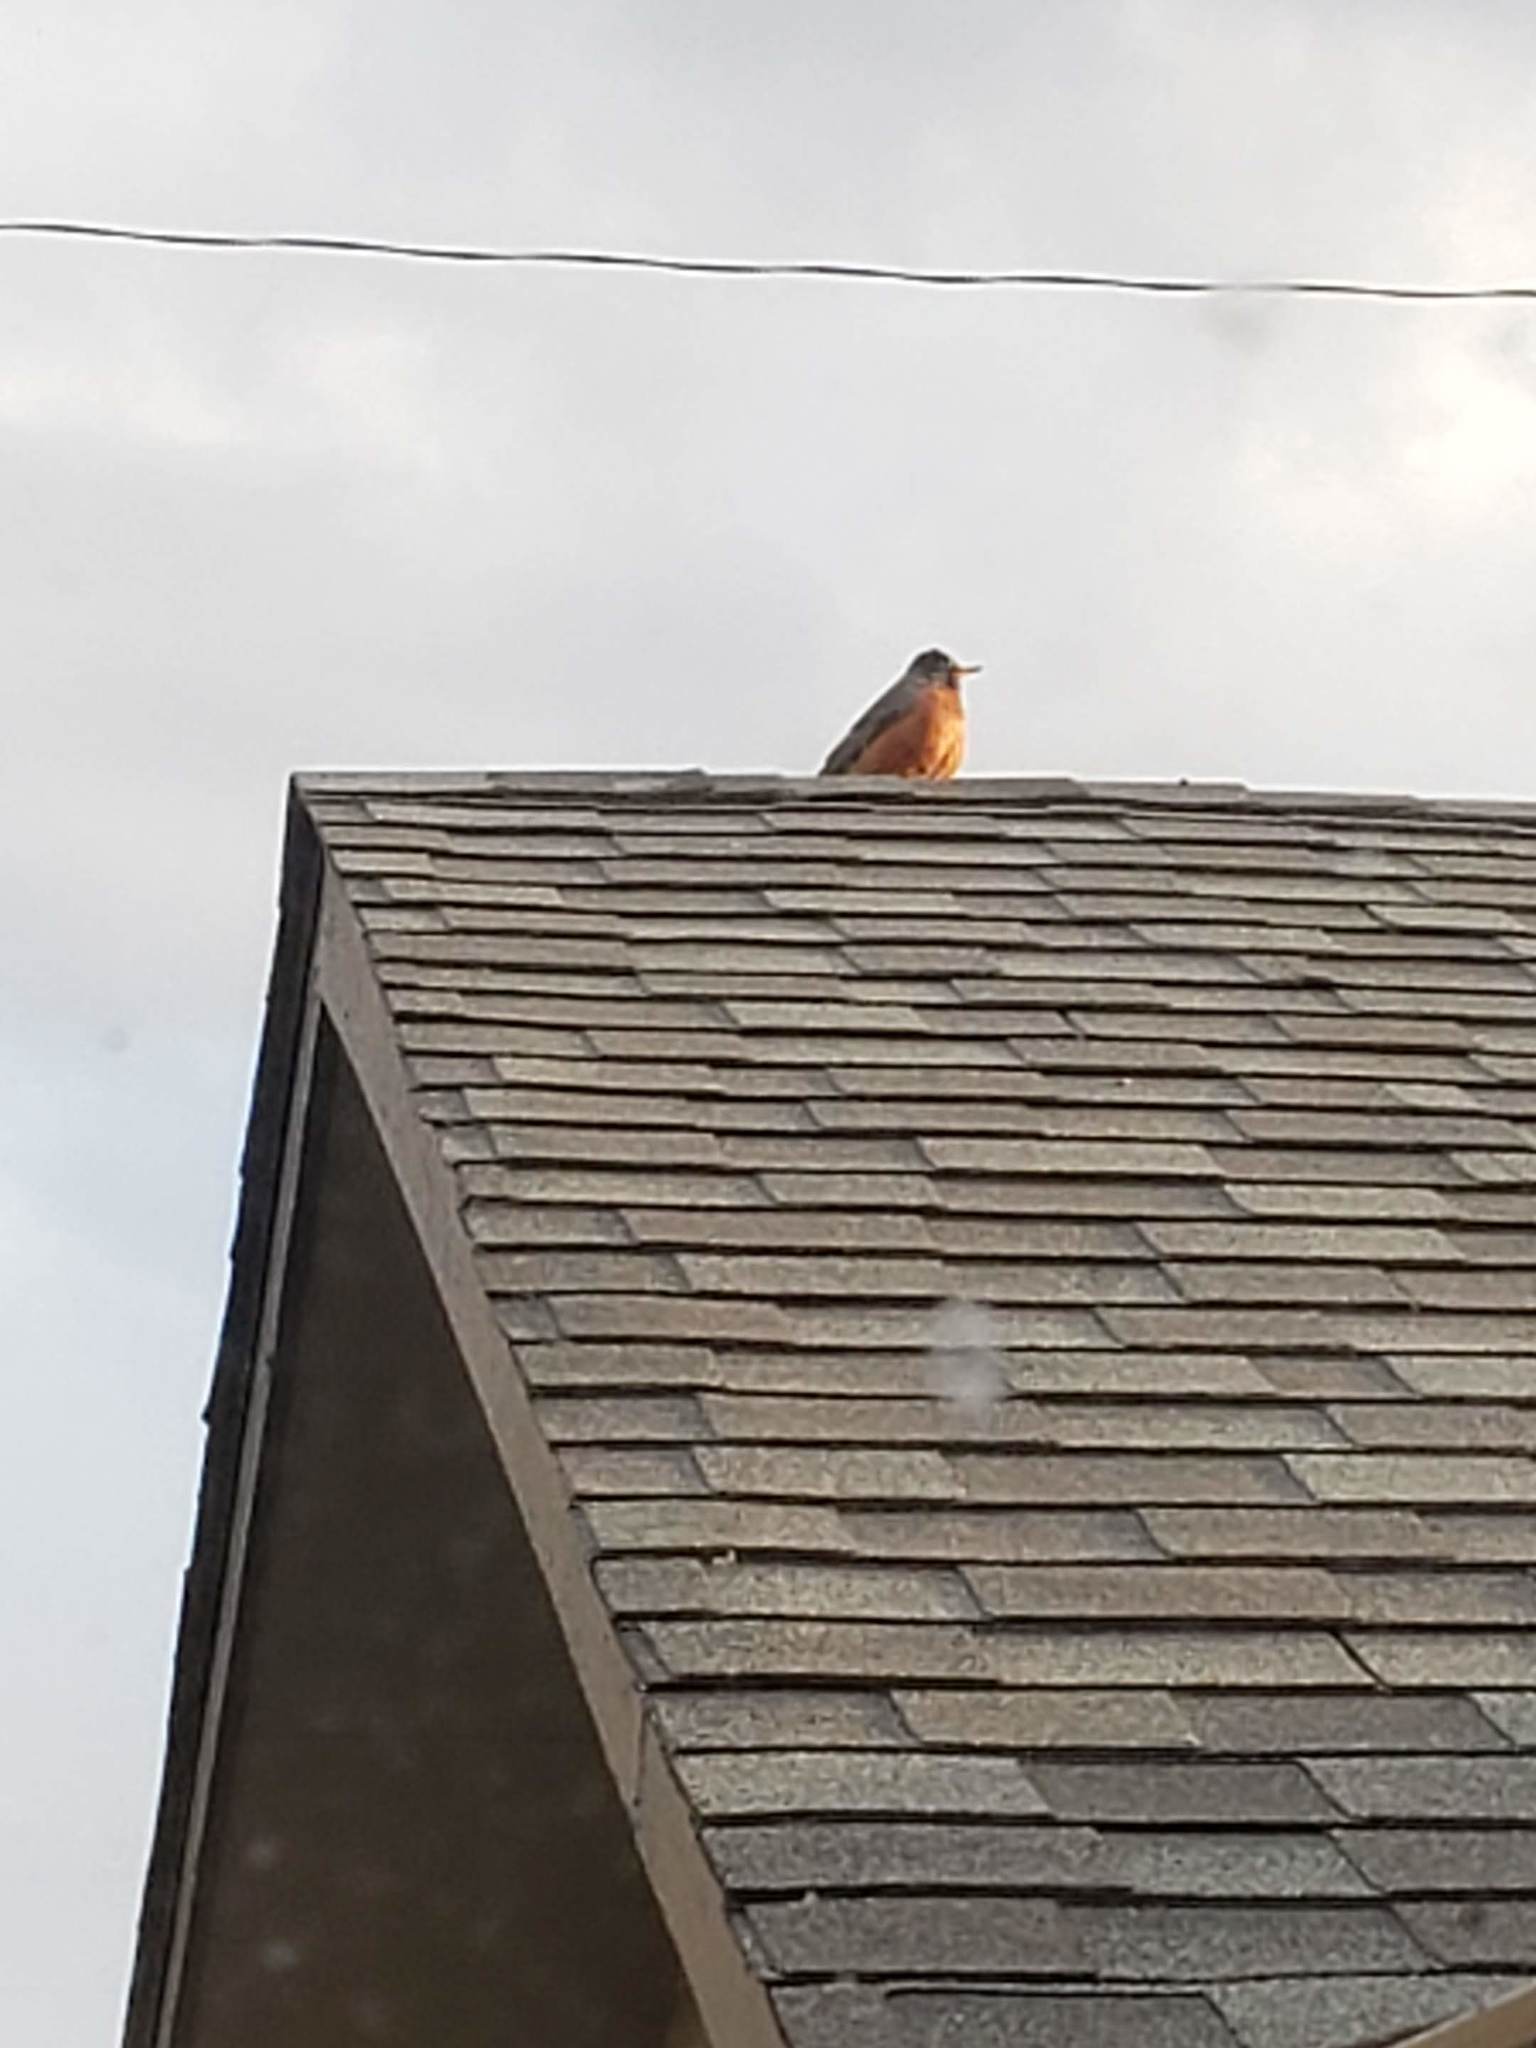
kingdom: Animalia
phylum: Chordata
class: Aves
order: Passeriformes
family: Turdidae
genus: Turdus
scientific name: Turdus migratorius
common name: American robin
